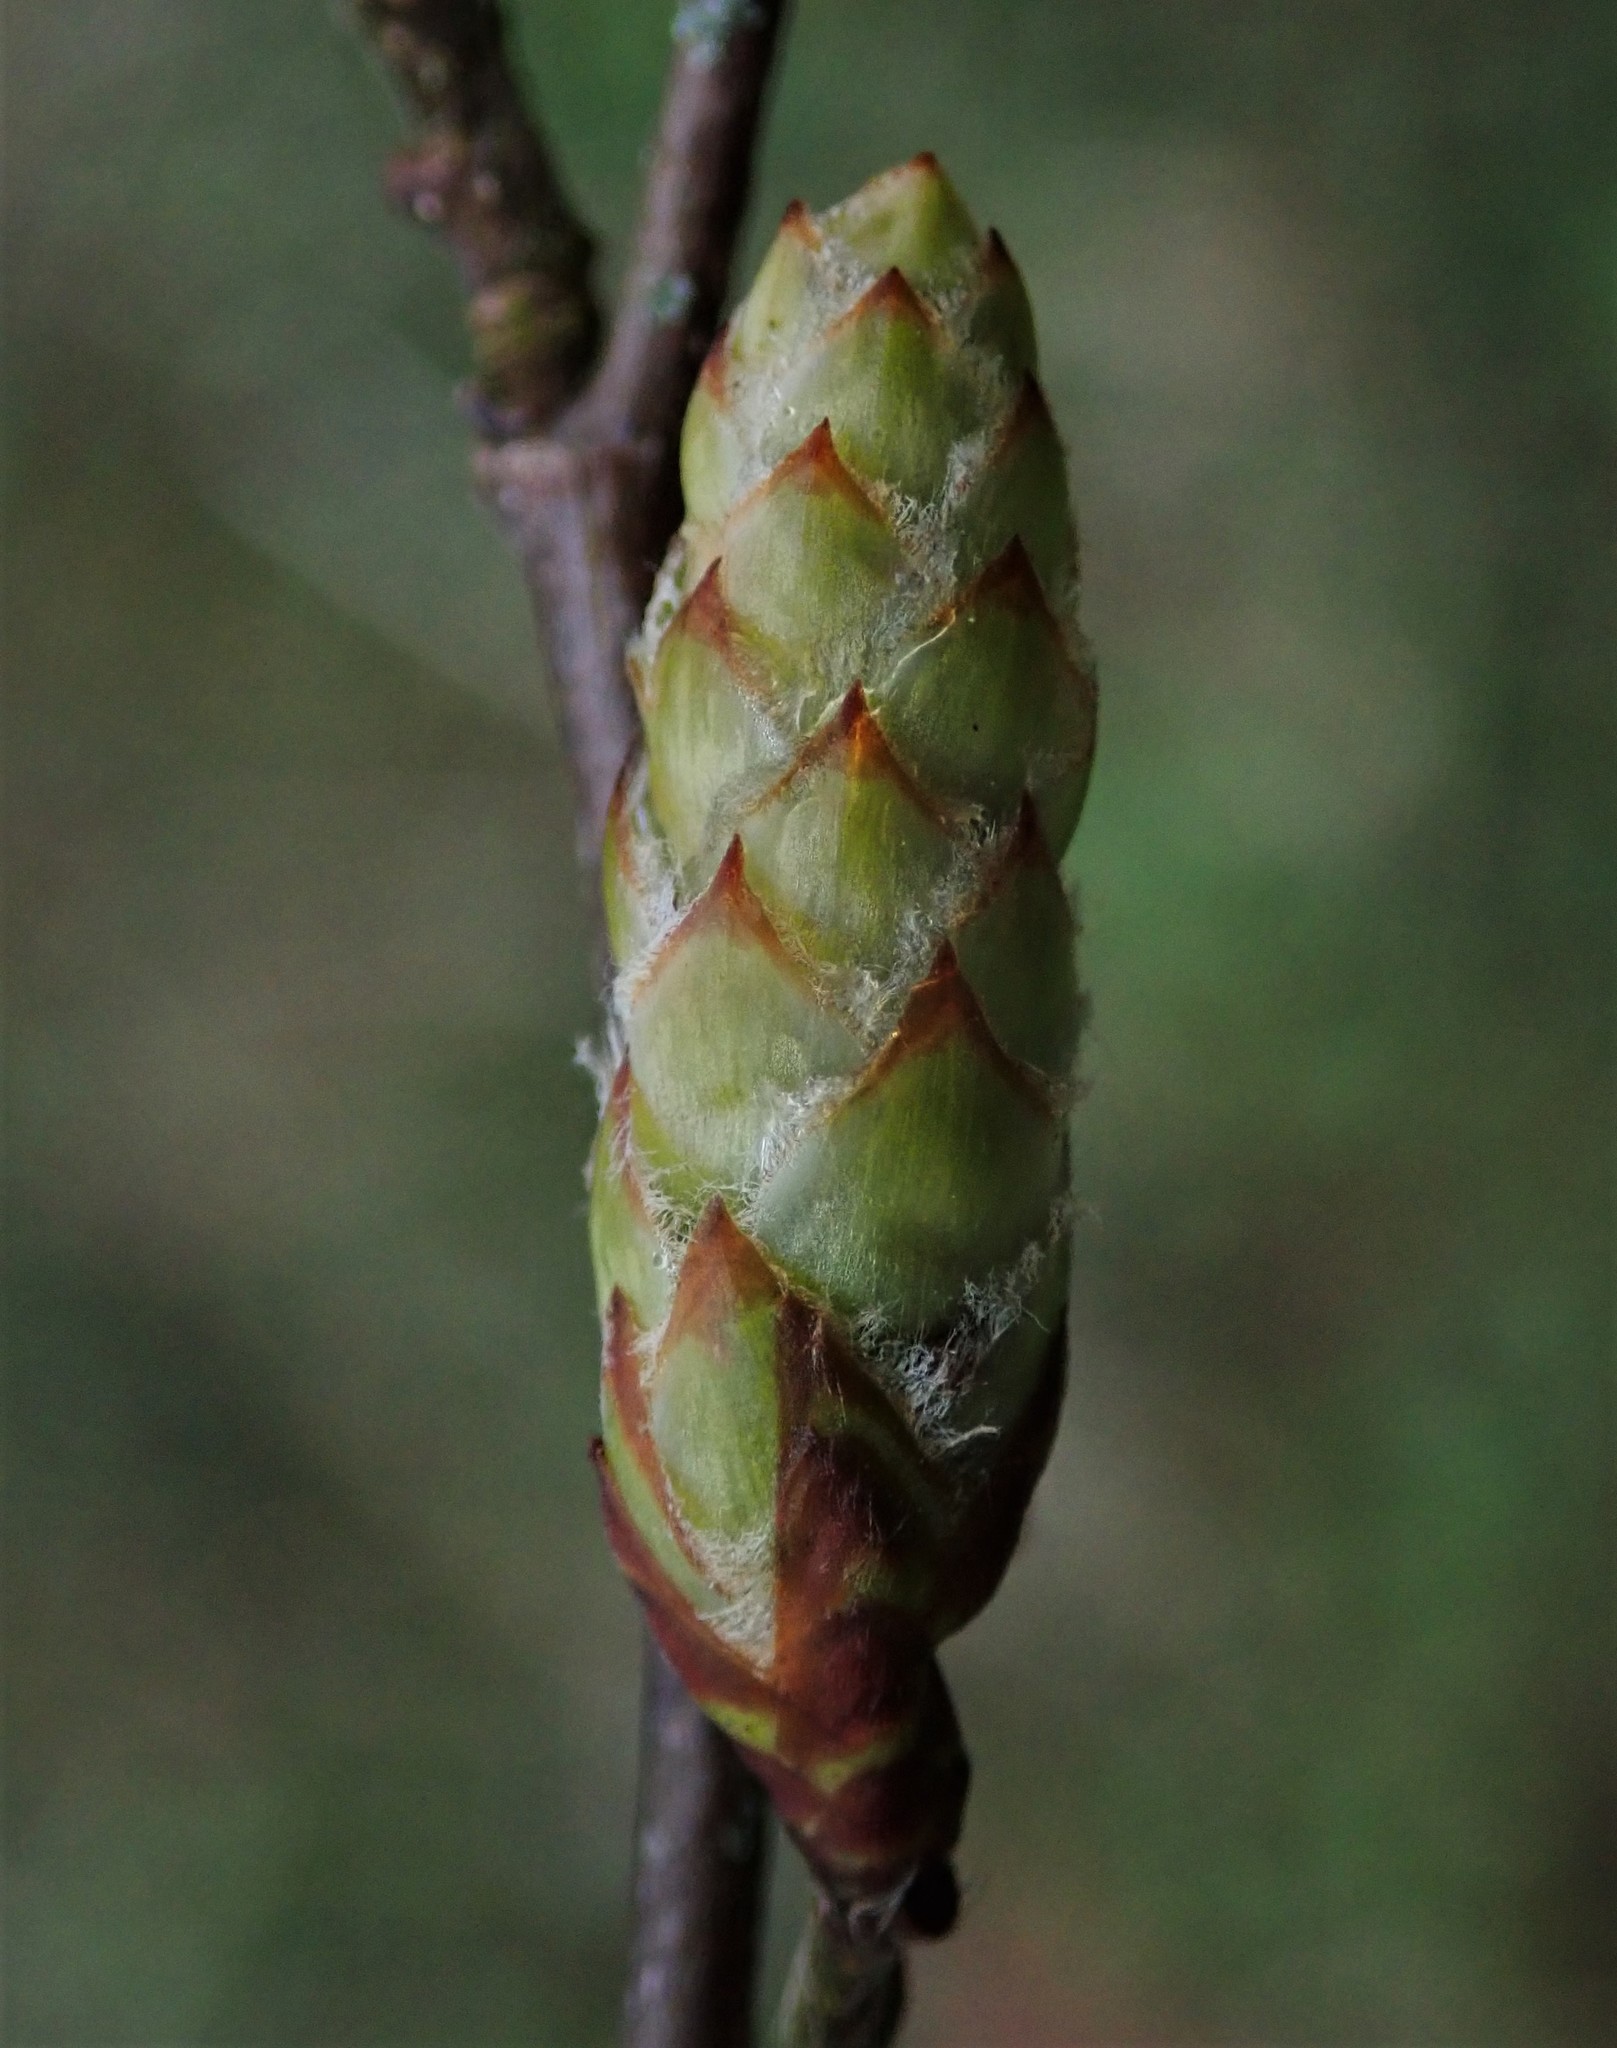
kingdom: Plantae
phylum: Tracheophyta
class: Magnoliopsida
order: Fagales
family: Betulaceae
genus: Carpinus
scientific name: Carpinus betulus
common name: Hornbeam
